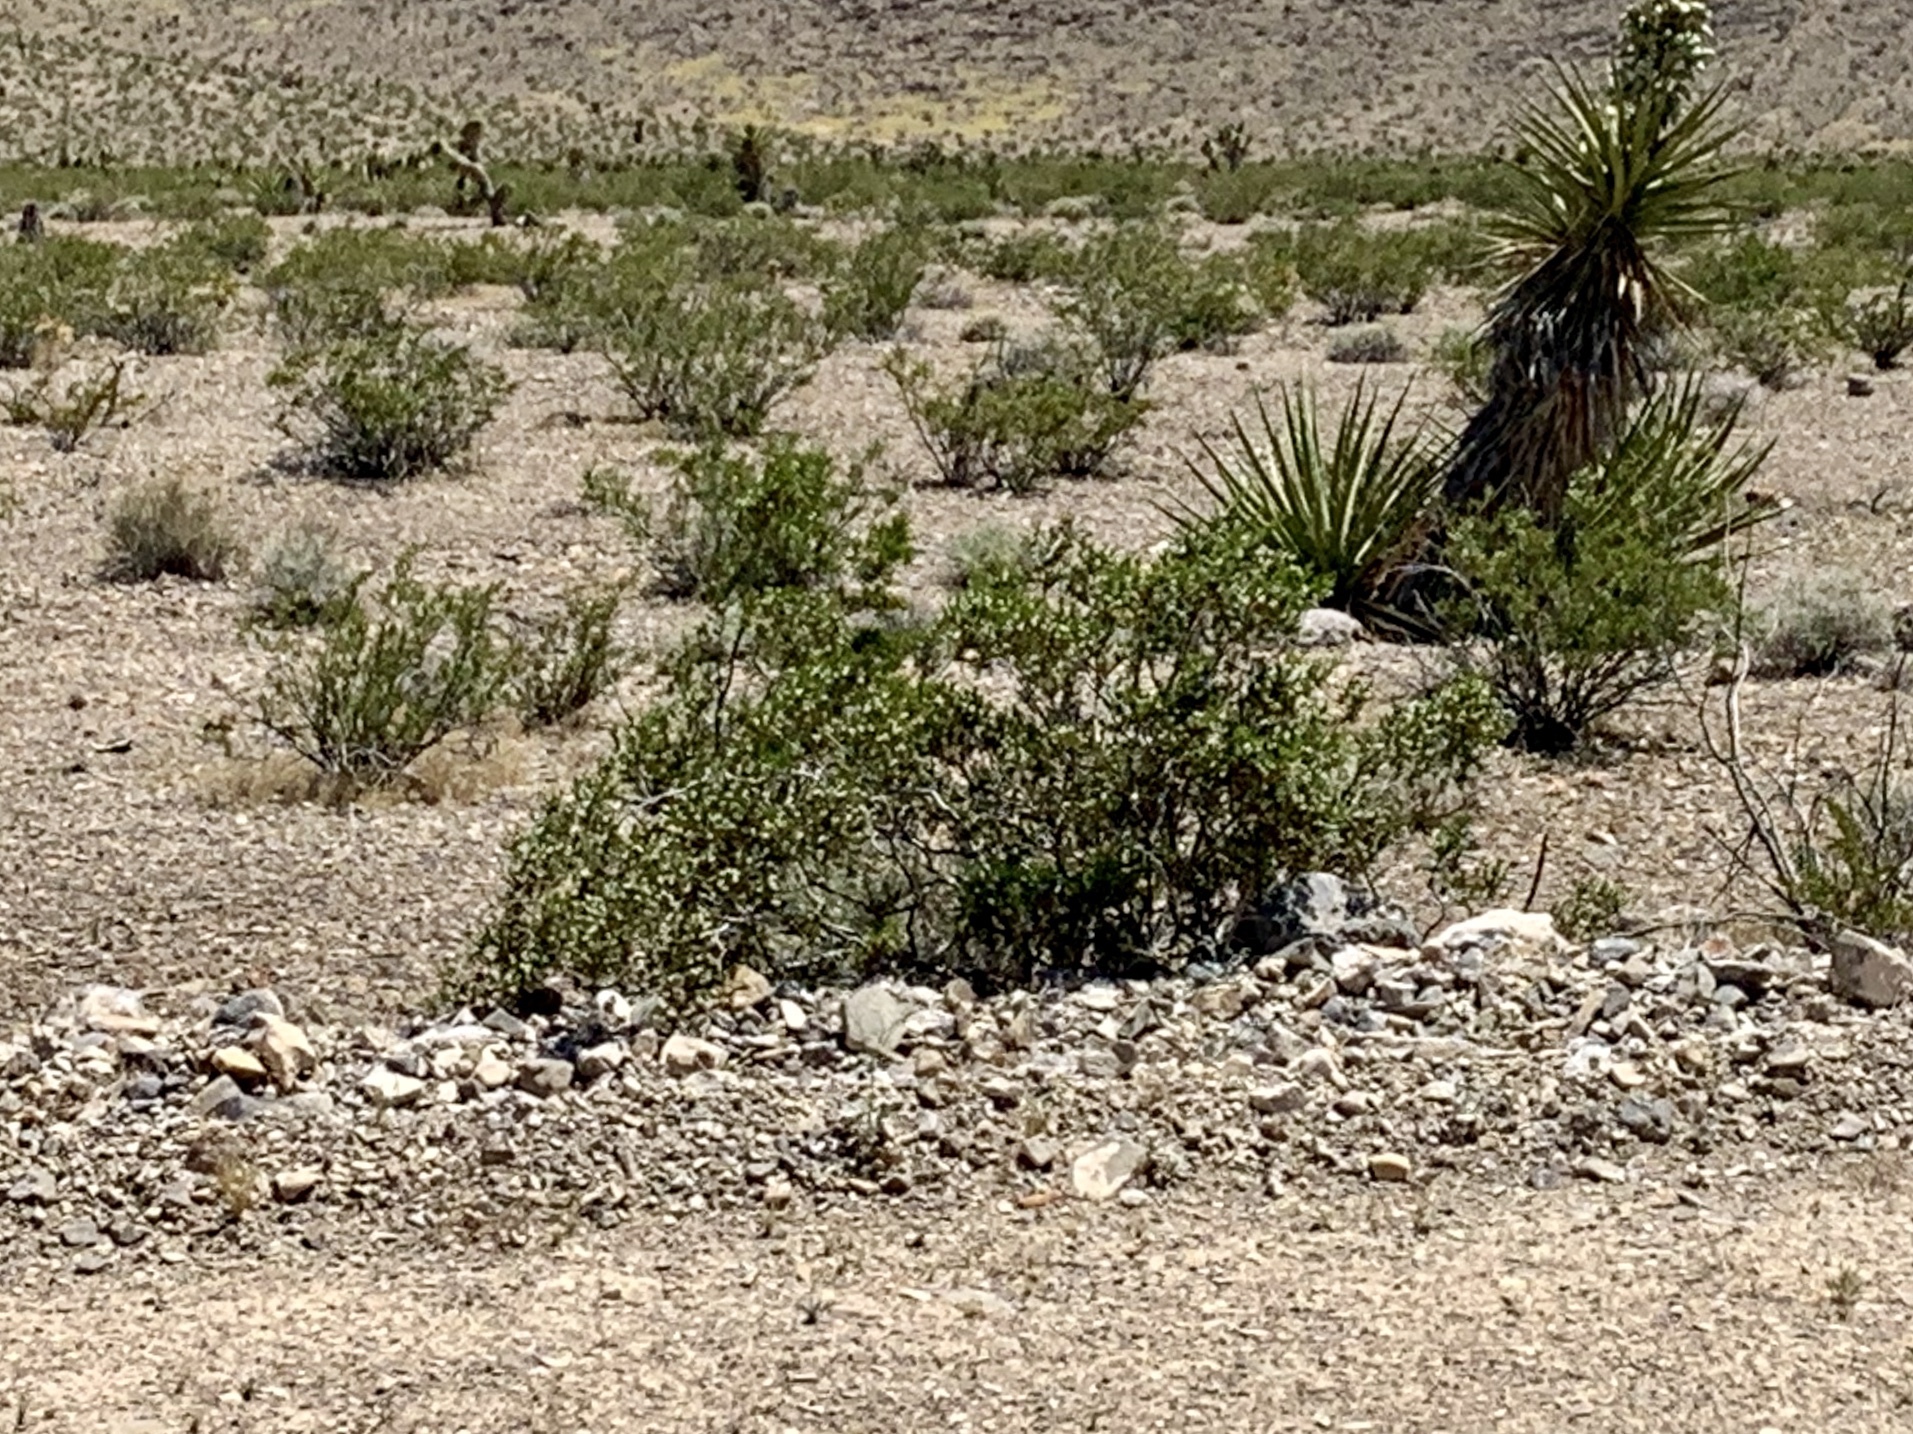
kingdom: Plantae
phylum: Tracheophyta
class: Magnoliopsida
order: Zygophyllales
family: Zygophyllaceae
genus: Larrea
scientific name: Larrea tridentata
